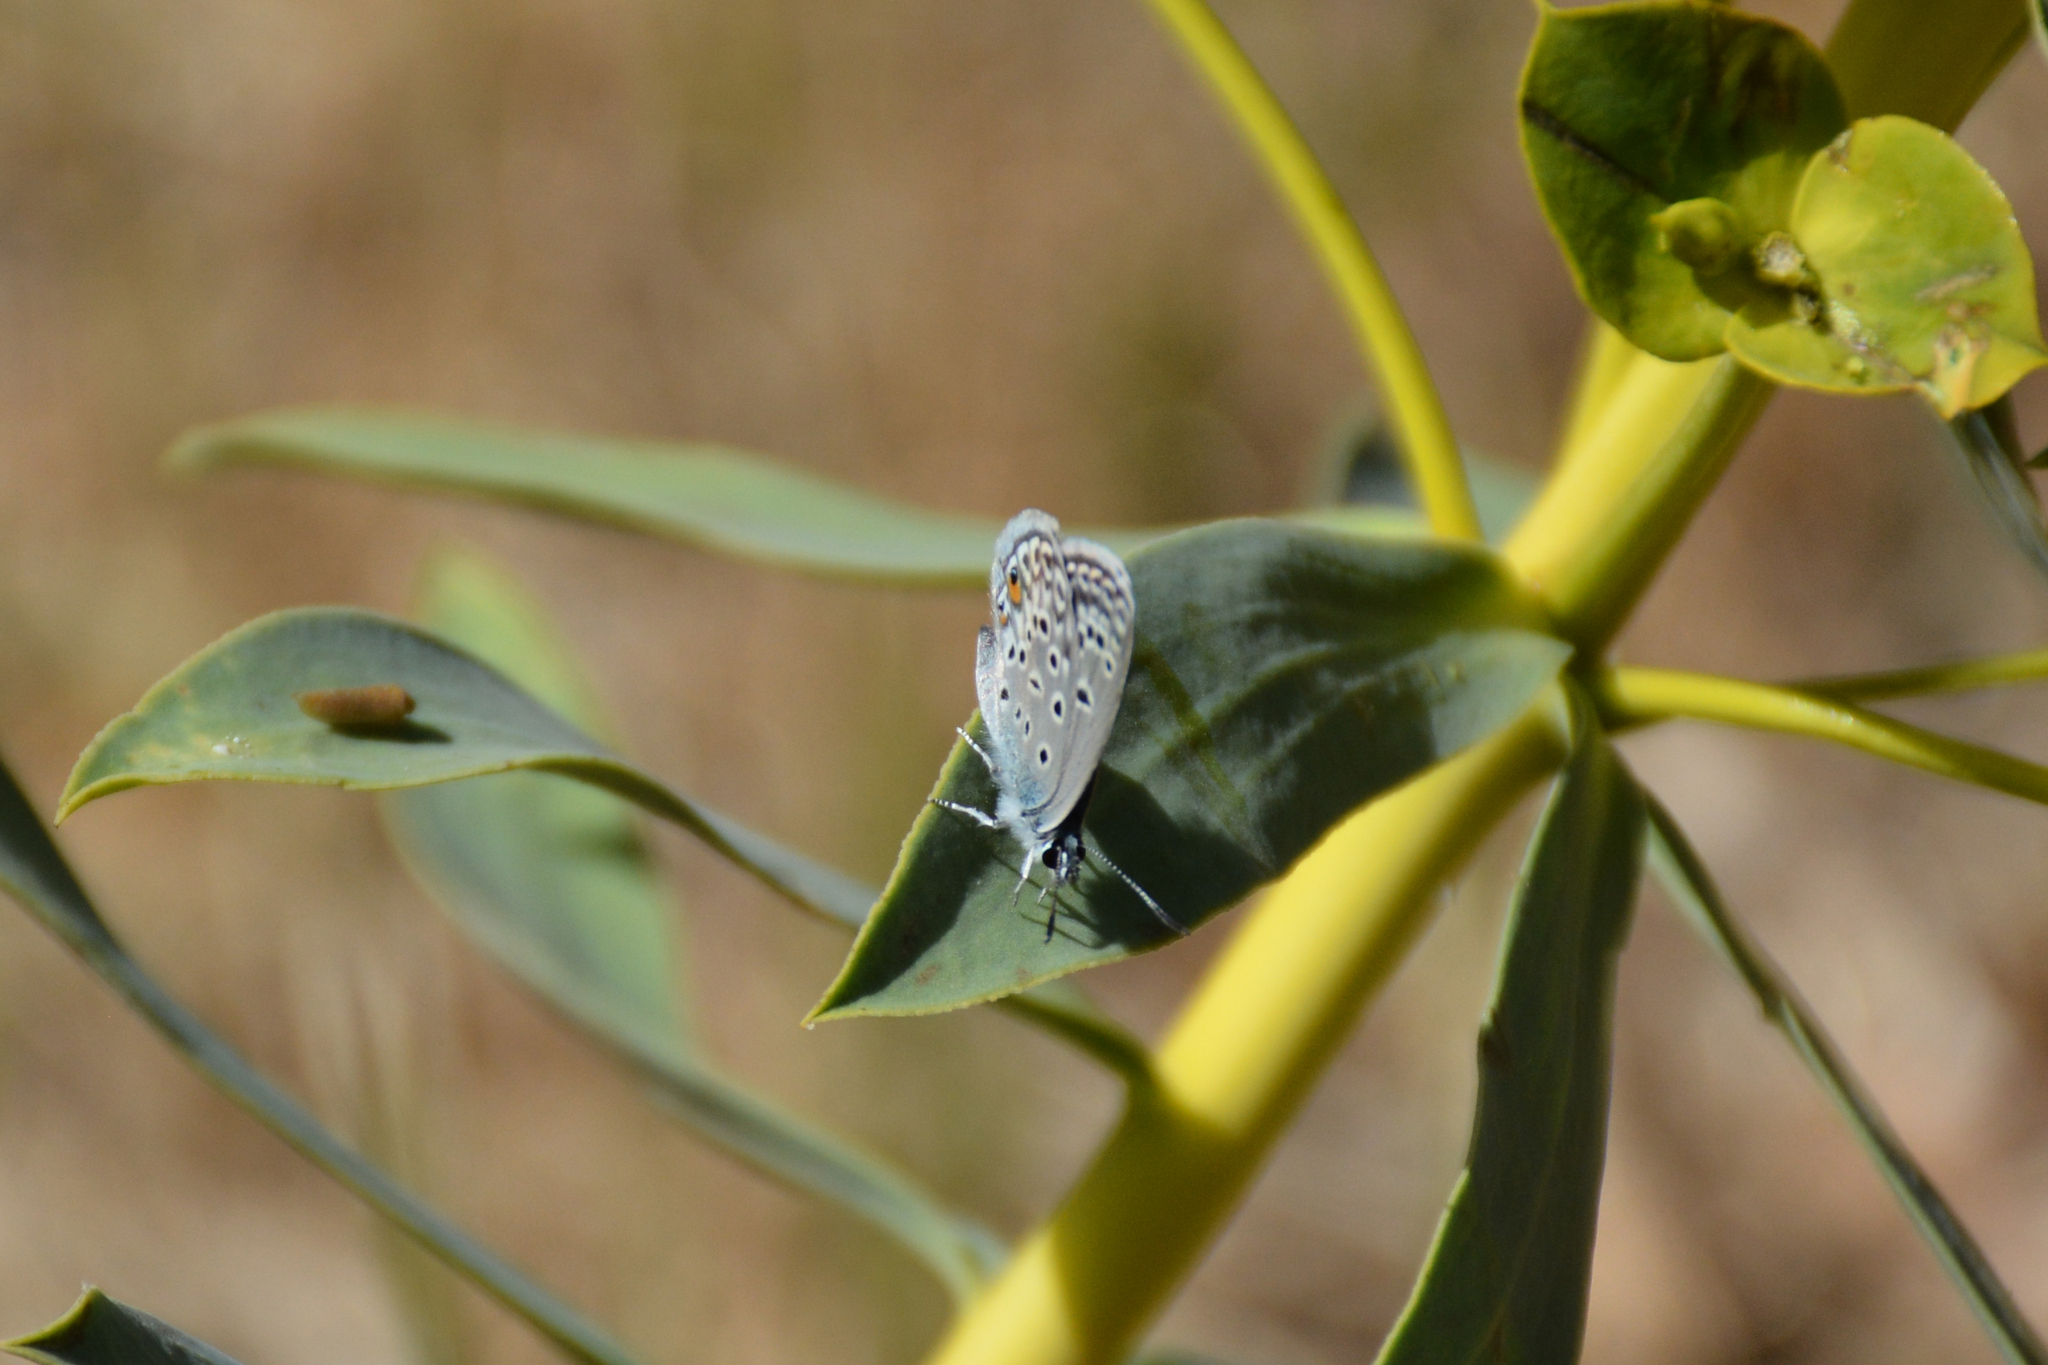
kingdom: Animalia
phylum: Arthropoda
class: Insecta
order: Lepidoptera
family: Lycaenidae
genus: Plebejidea
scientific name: Plebejidea loewi
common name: Loew's blue
